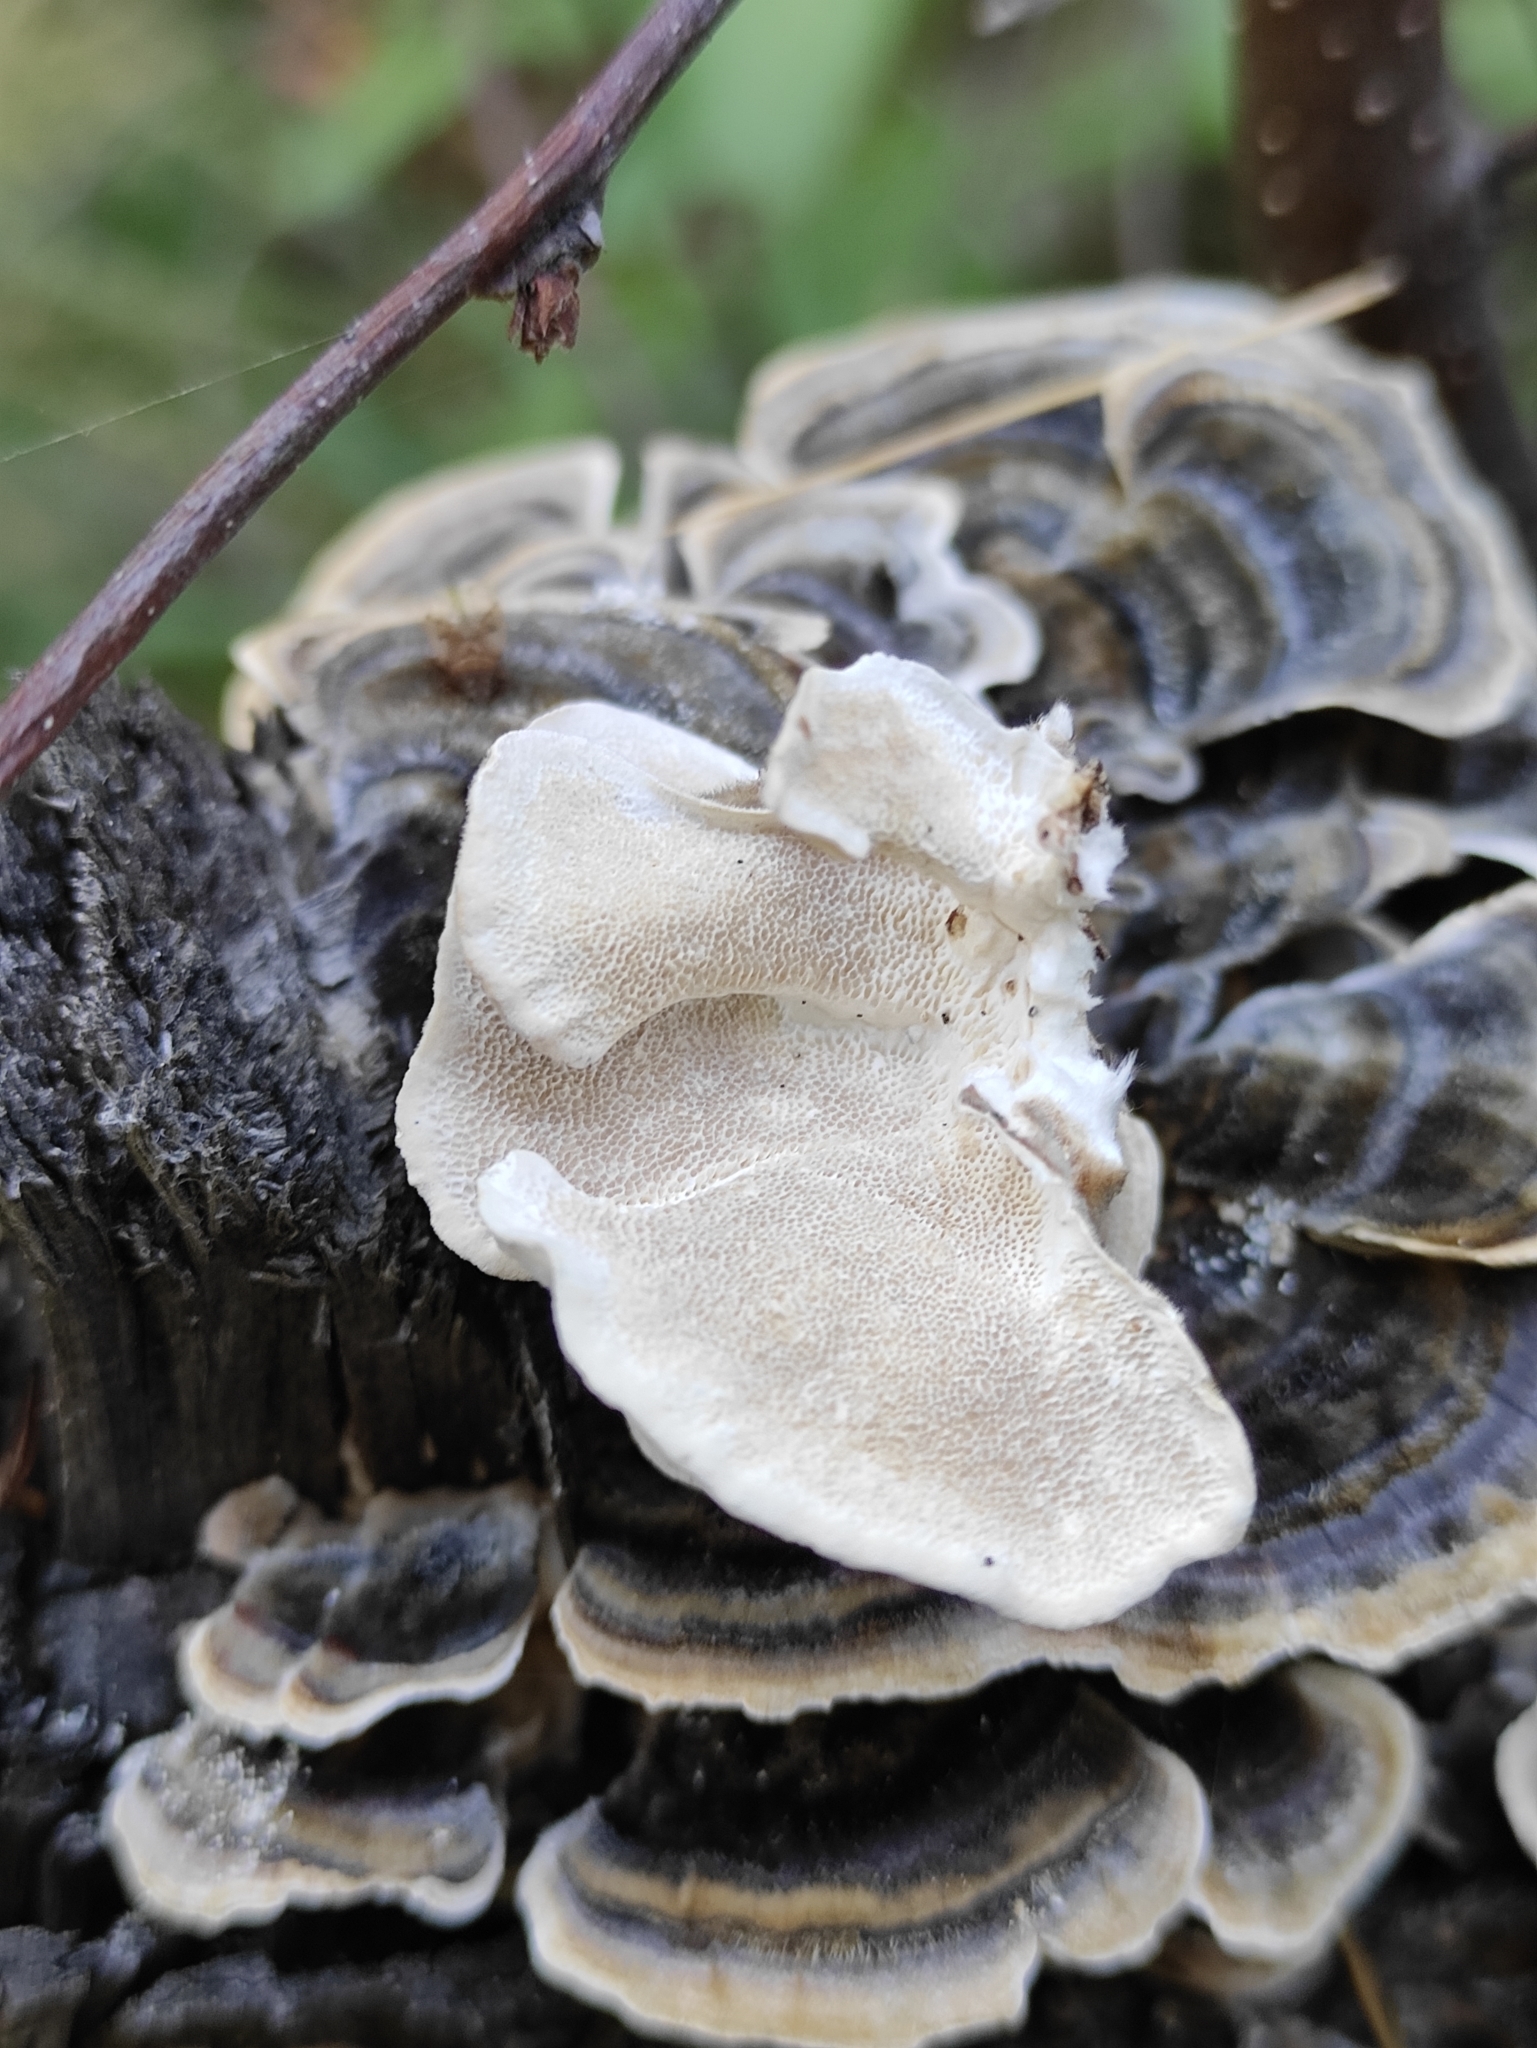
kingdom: Fungi
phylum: Basidiomycota
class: Agaricomycetes
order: Polyporales
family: Polyporaceae
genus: Trametes
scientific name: Trametes versicolor
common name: Turkeytail
